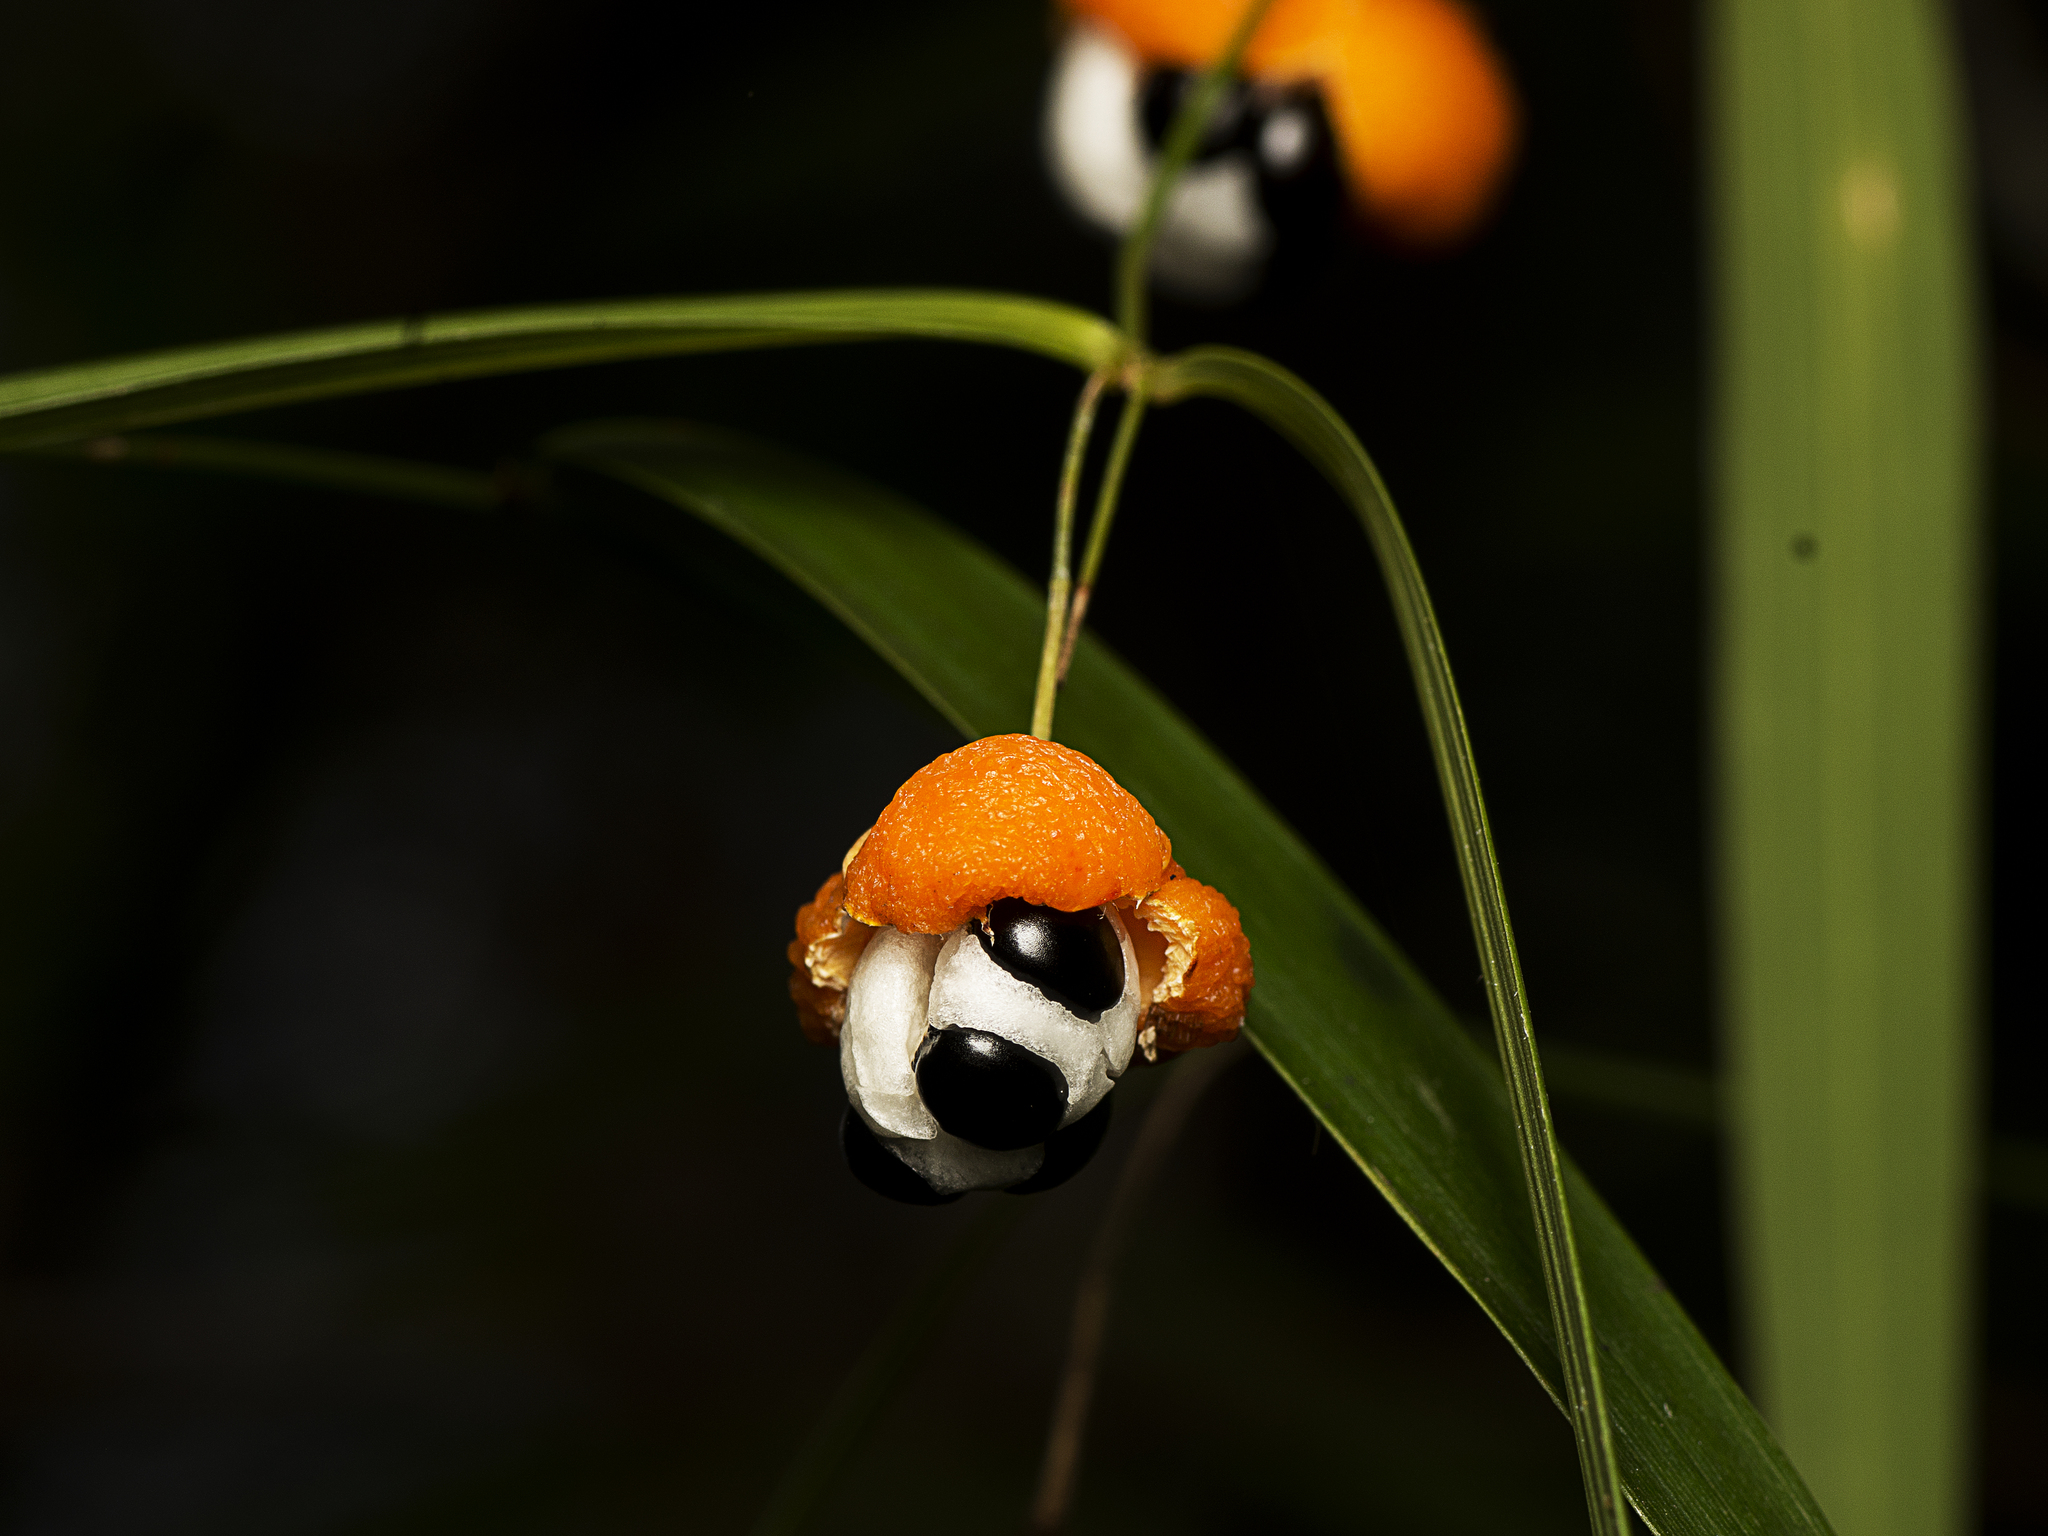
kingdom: Plantae
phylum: Tracheophyta
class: Liliopsida
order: Asparagales
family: Asparagaceae
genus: Eustrephus
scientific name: Eustrephus latifolius
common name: Orangevine
